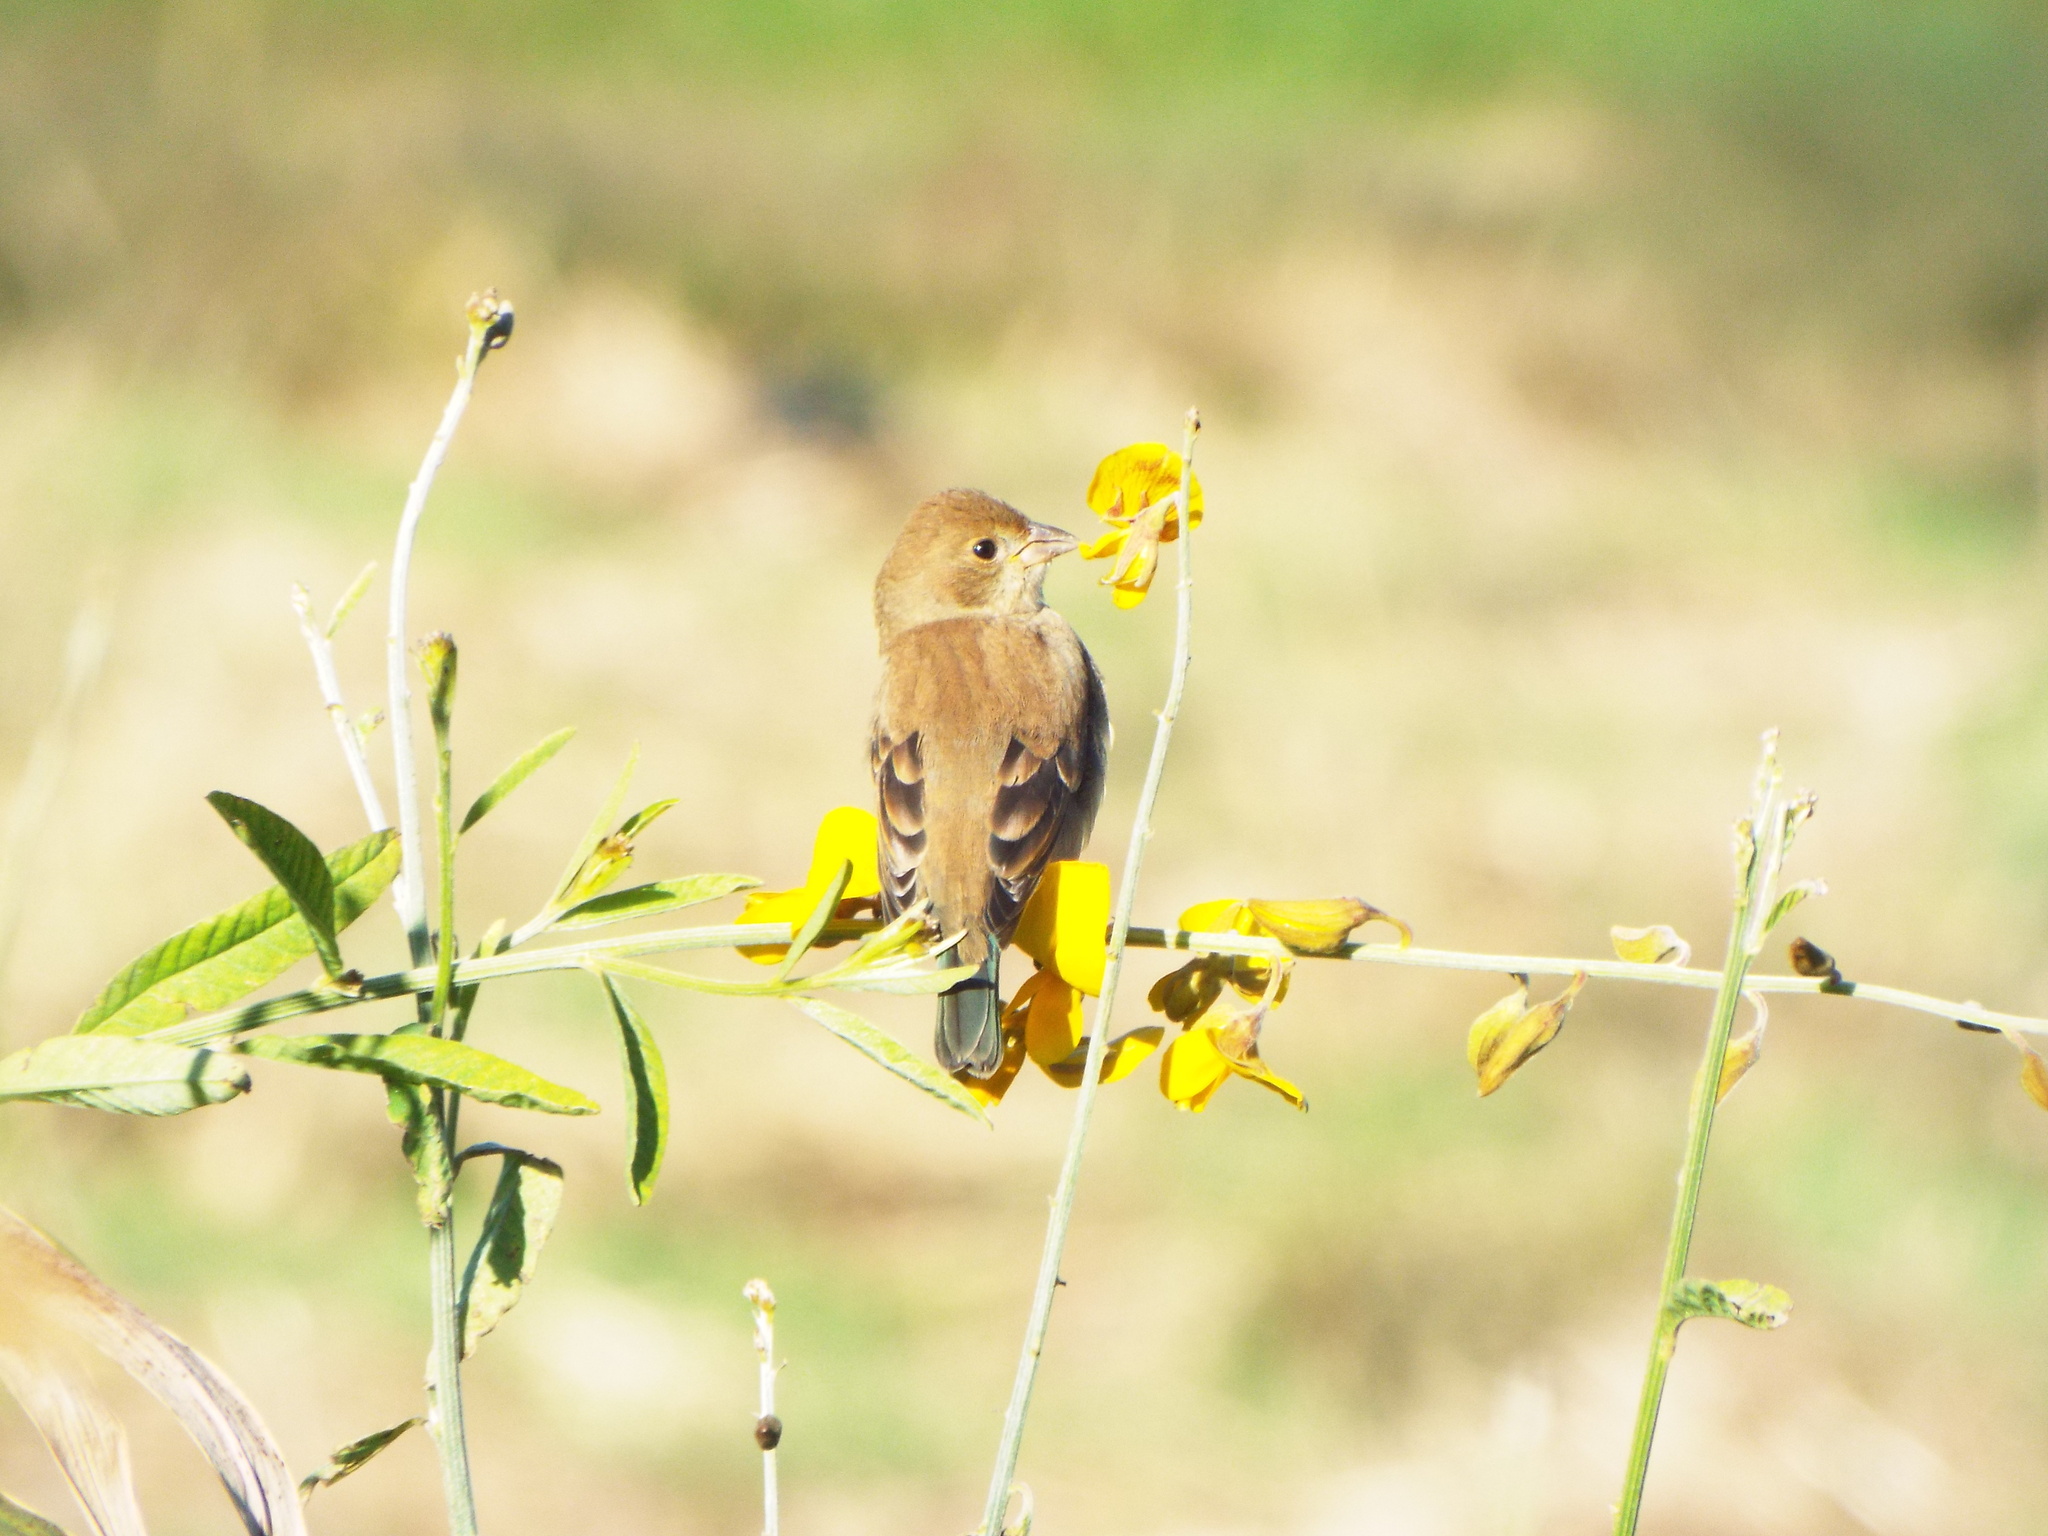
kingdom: Animalia
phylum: Chordata
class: Aves
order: Passeriformes
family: Cardinalidae
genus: Passerina
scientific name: Passerina cyanea
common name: Indigo bunting
